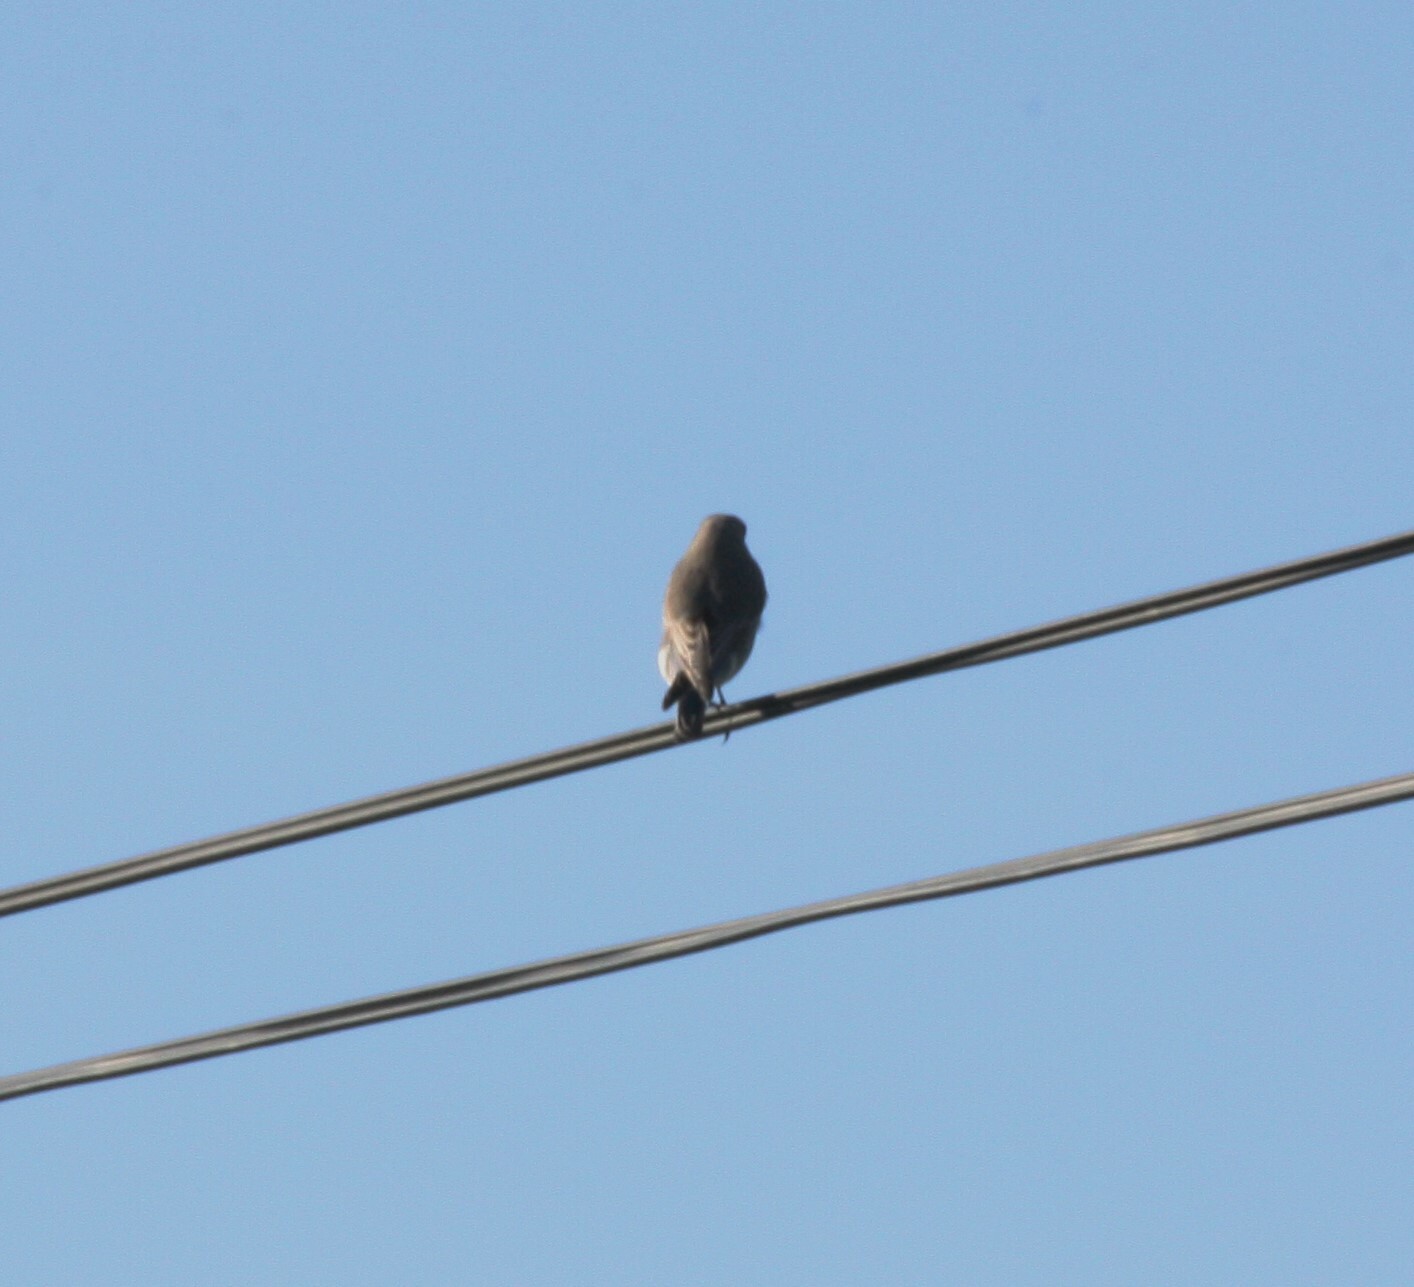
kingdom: Animalia
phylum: Chordata
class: Aves
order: Passeriformes
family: Turdidae
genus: Sialia
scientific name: Sialia currucoides
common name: Mountain bluebird
